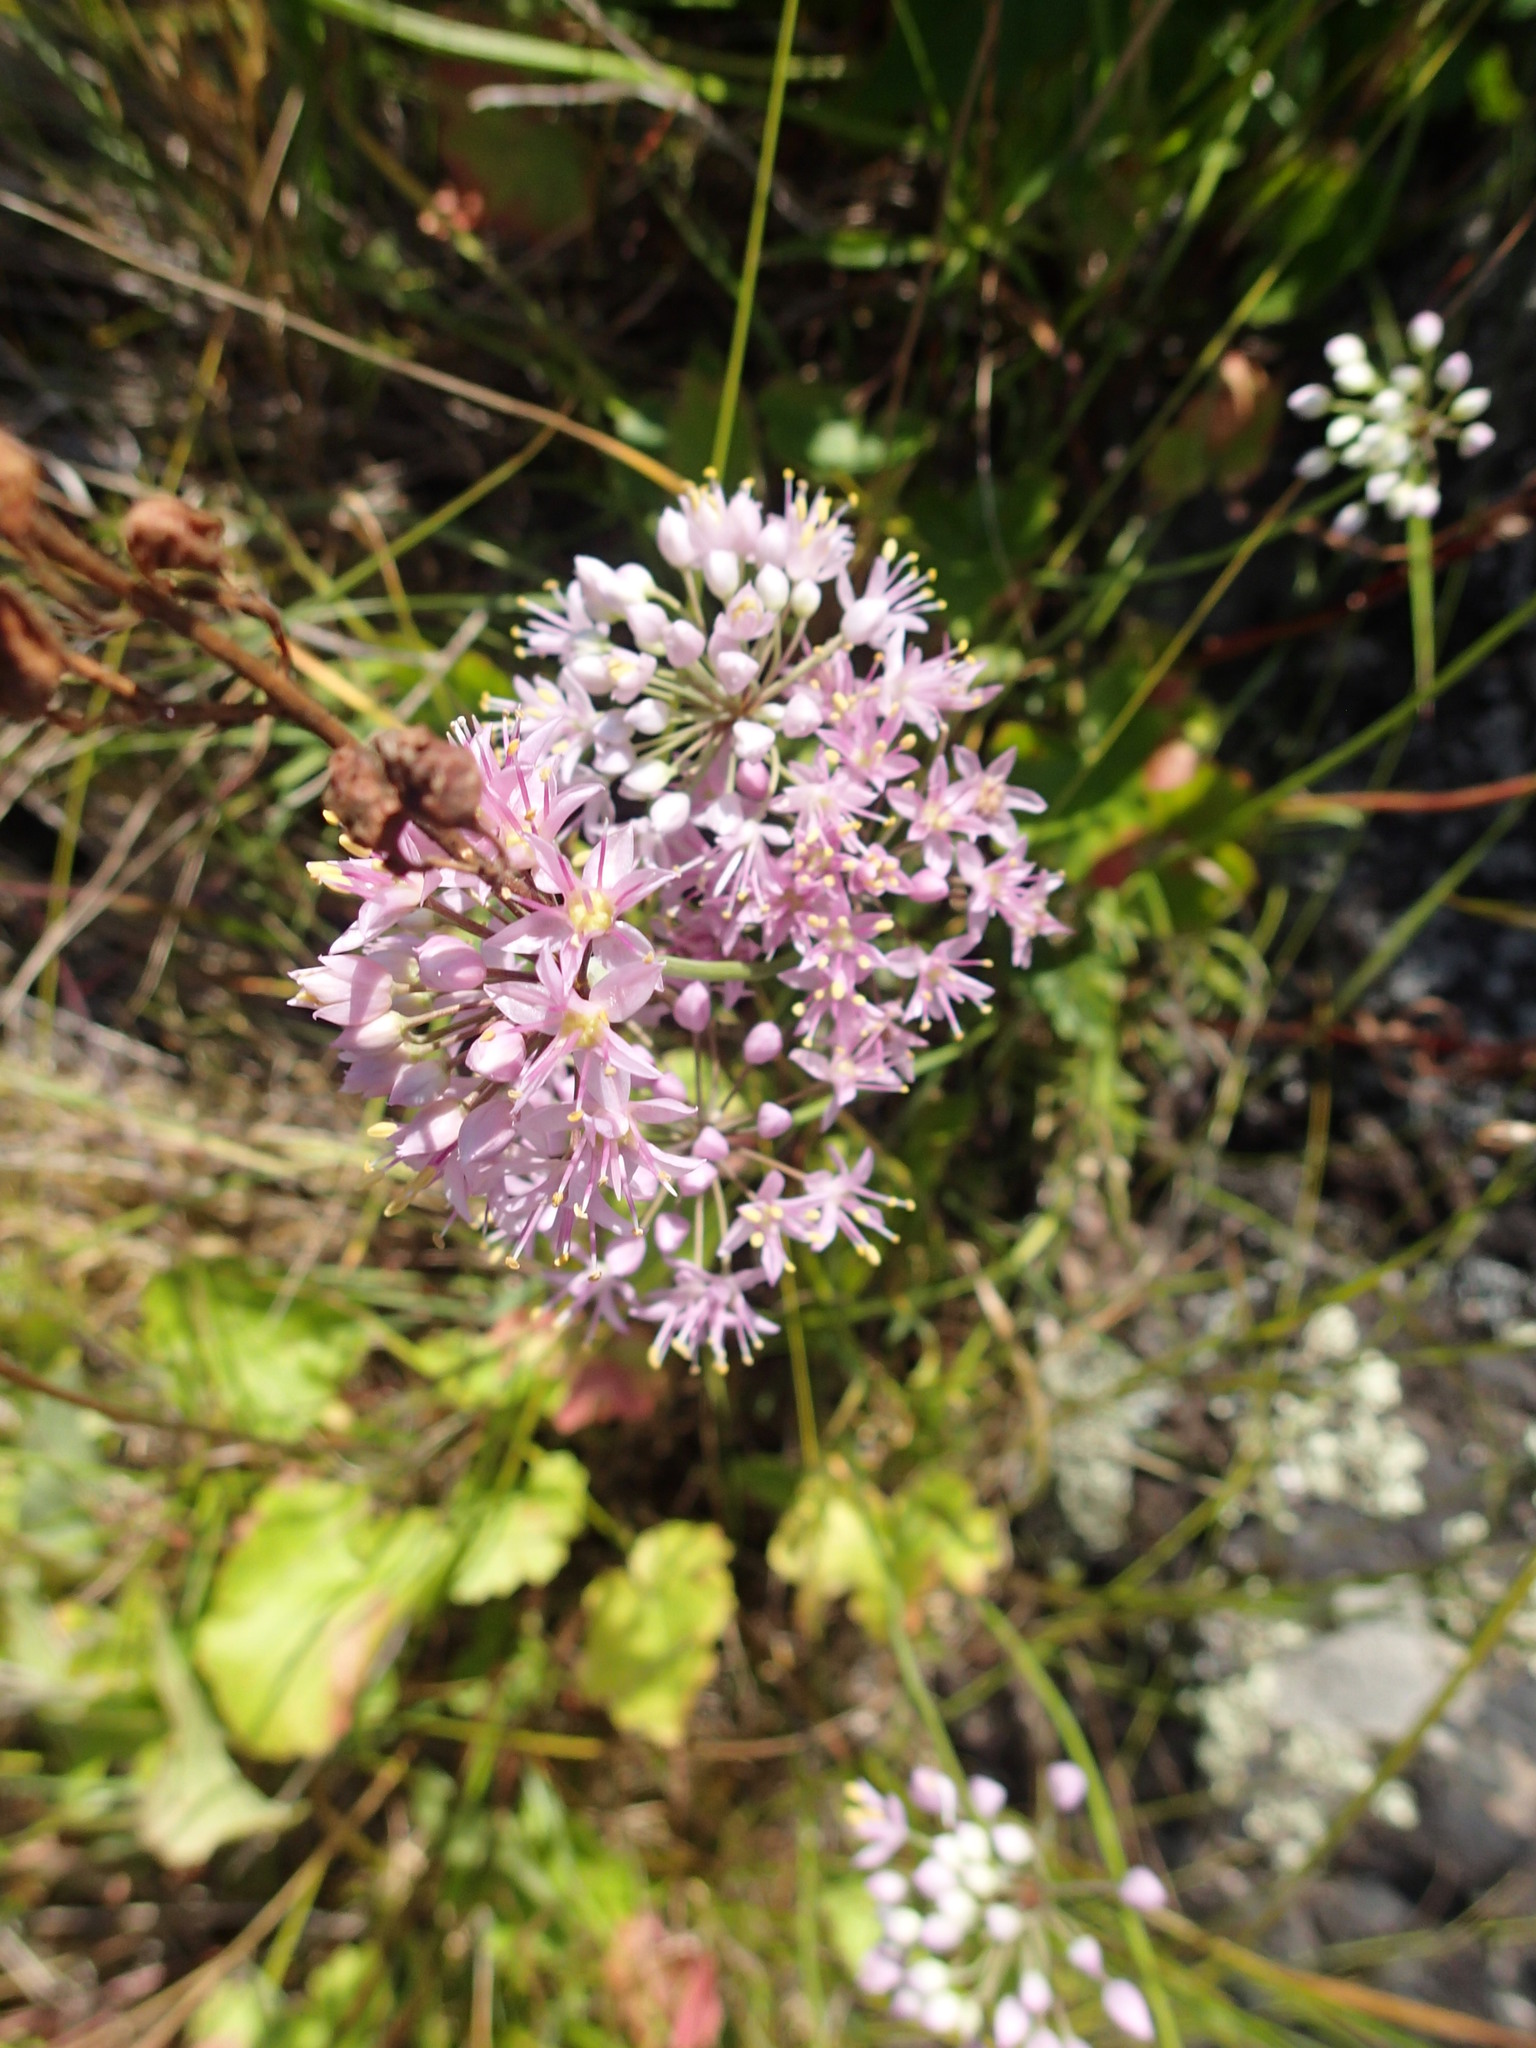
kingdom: Plantae
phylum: Tracheophyta
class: Liliopsida
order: Asparagales
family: Amaryllidaceae
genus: Allium
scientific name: Allium stellatum
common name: Autumn onion
